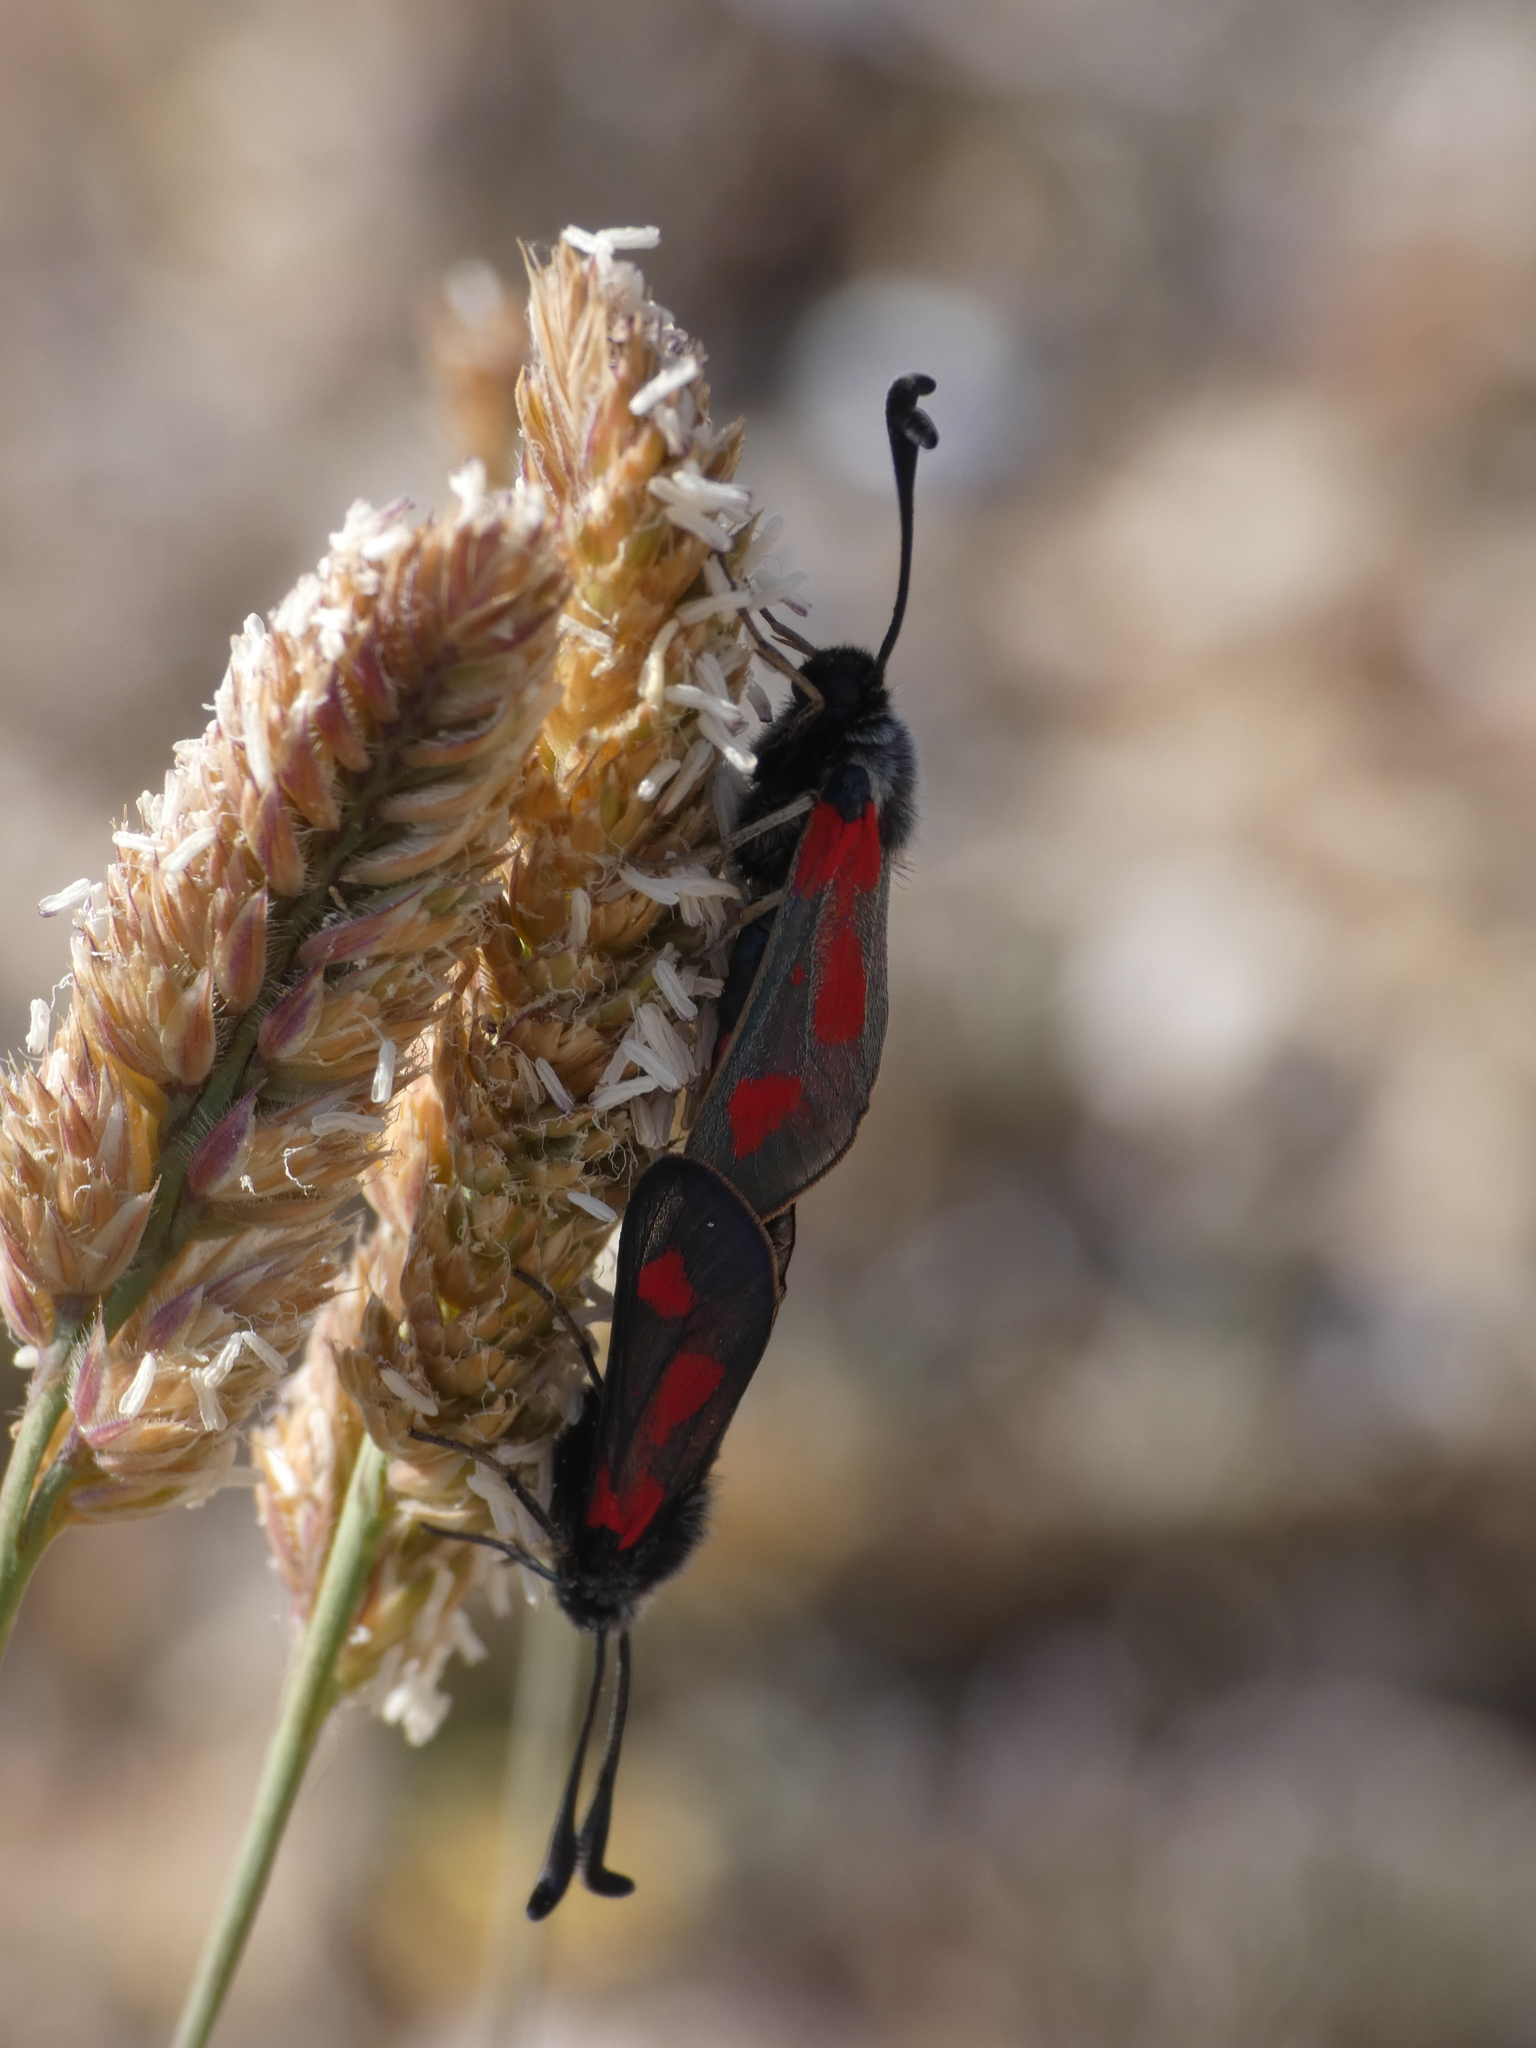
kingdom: Animalia
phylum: Arthropoda
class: Insecta
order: Lepidoptera
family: Zygaenidae
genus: Zygaena
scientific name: Zygaena sarpedon
